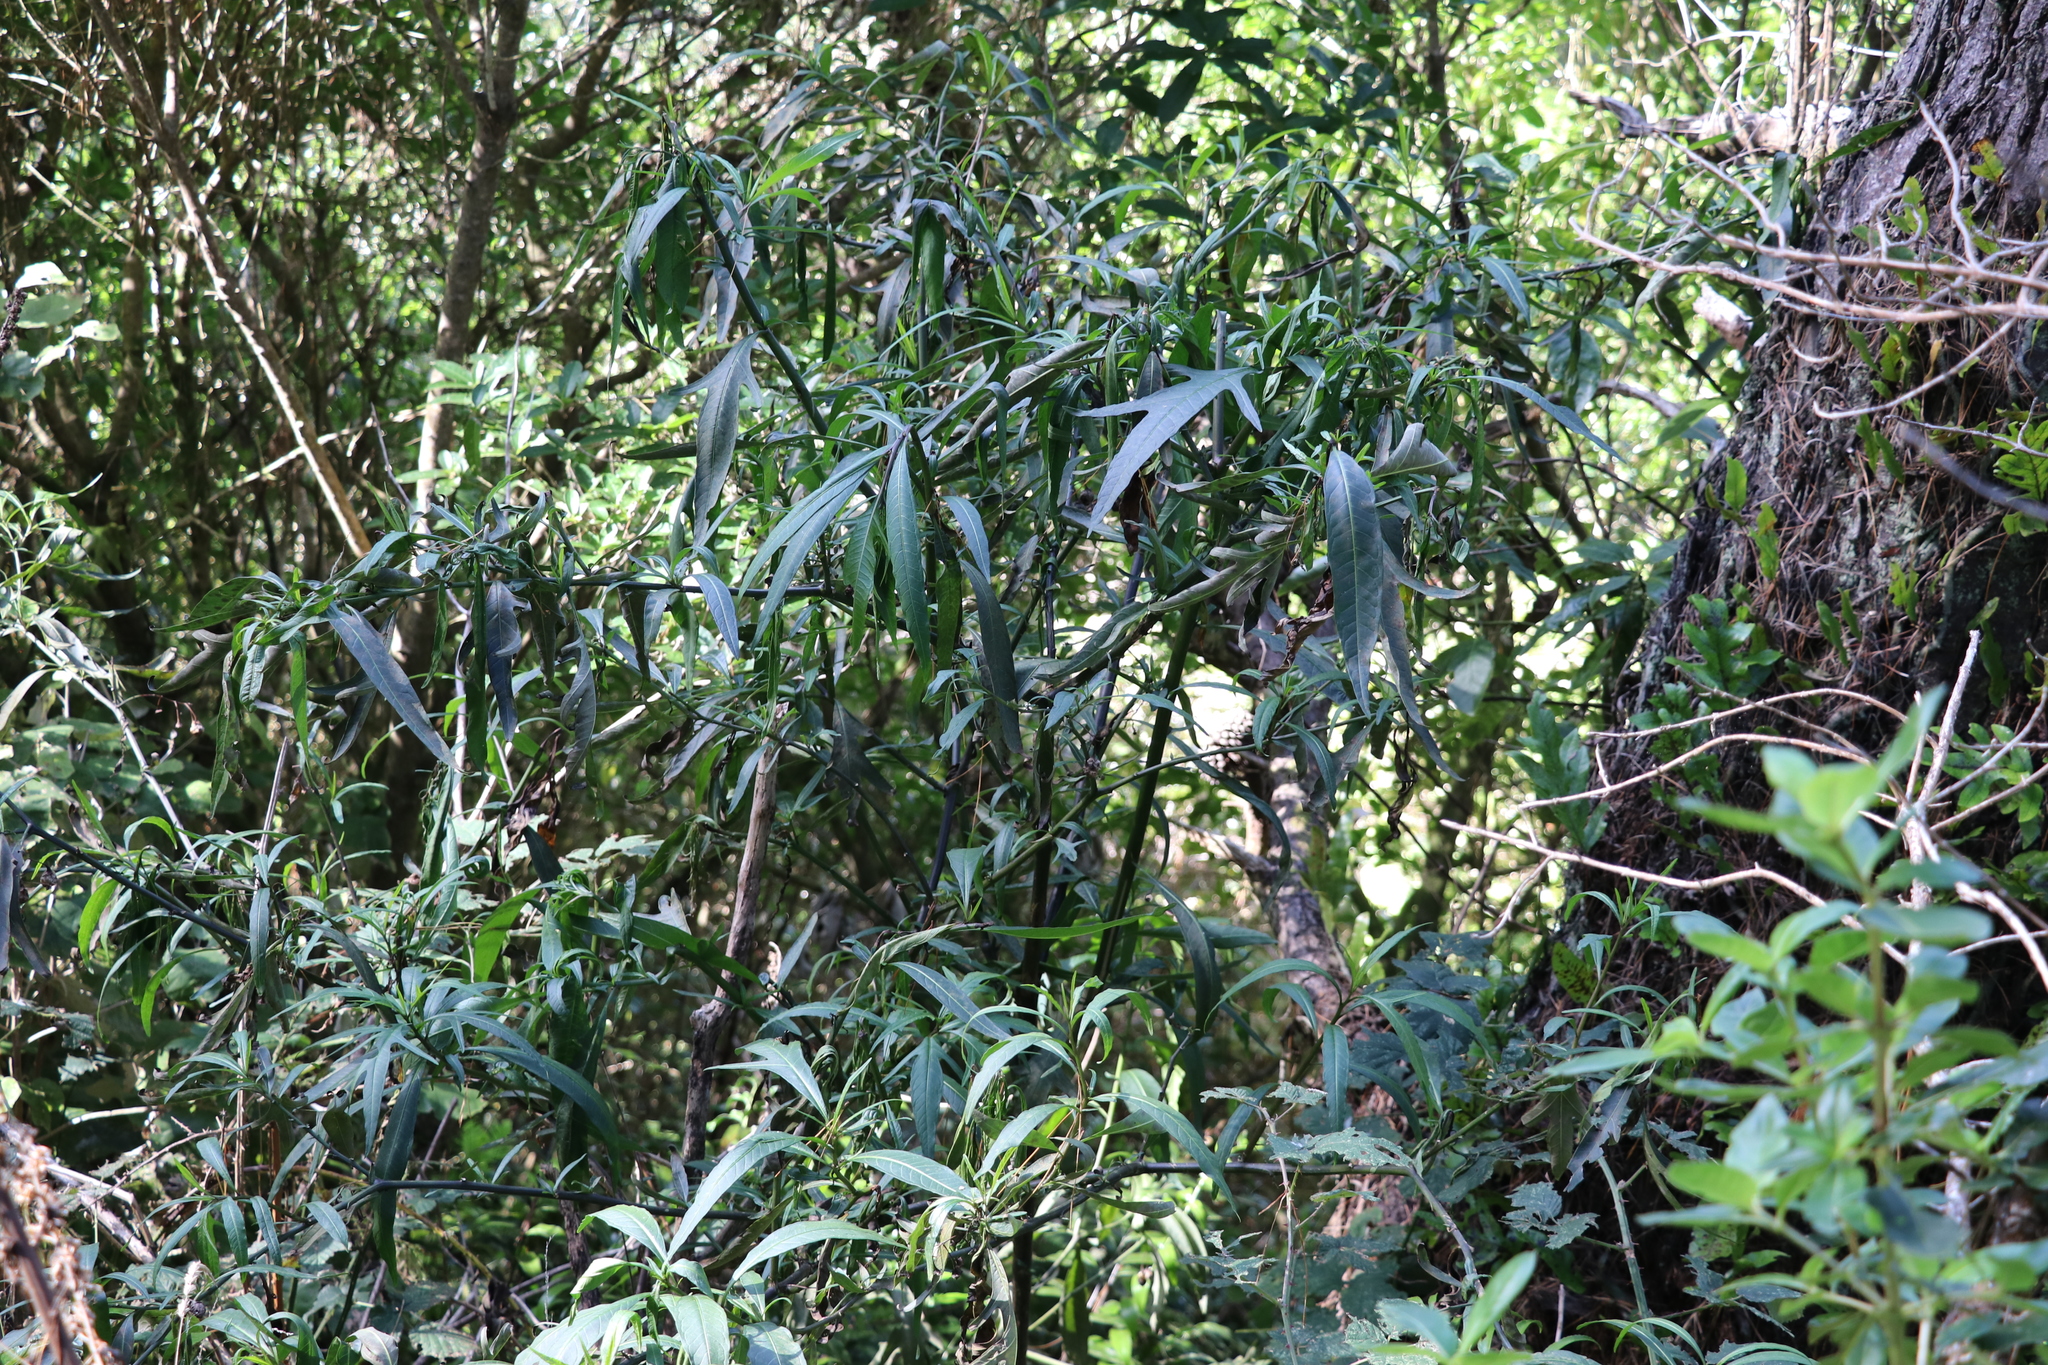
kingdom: Plantae
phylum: Tracheophyta
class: Magnoliopsida
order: Solanales
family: Solanaceae
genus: Solanum
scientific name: Solanum
